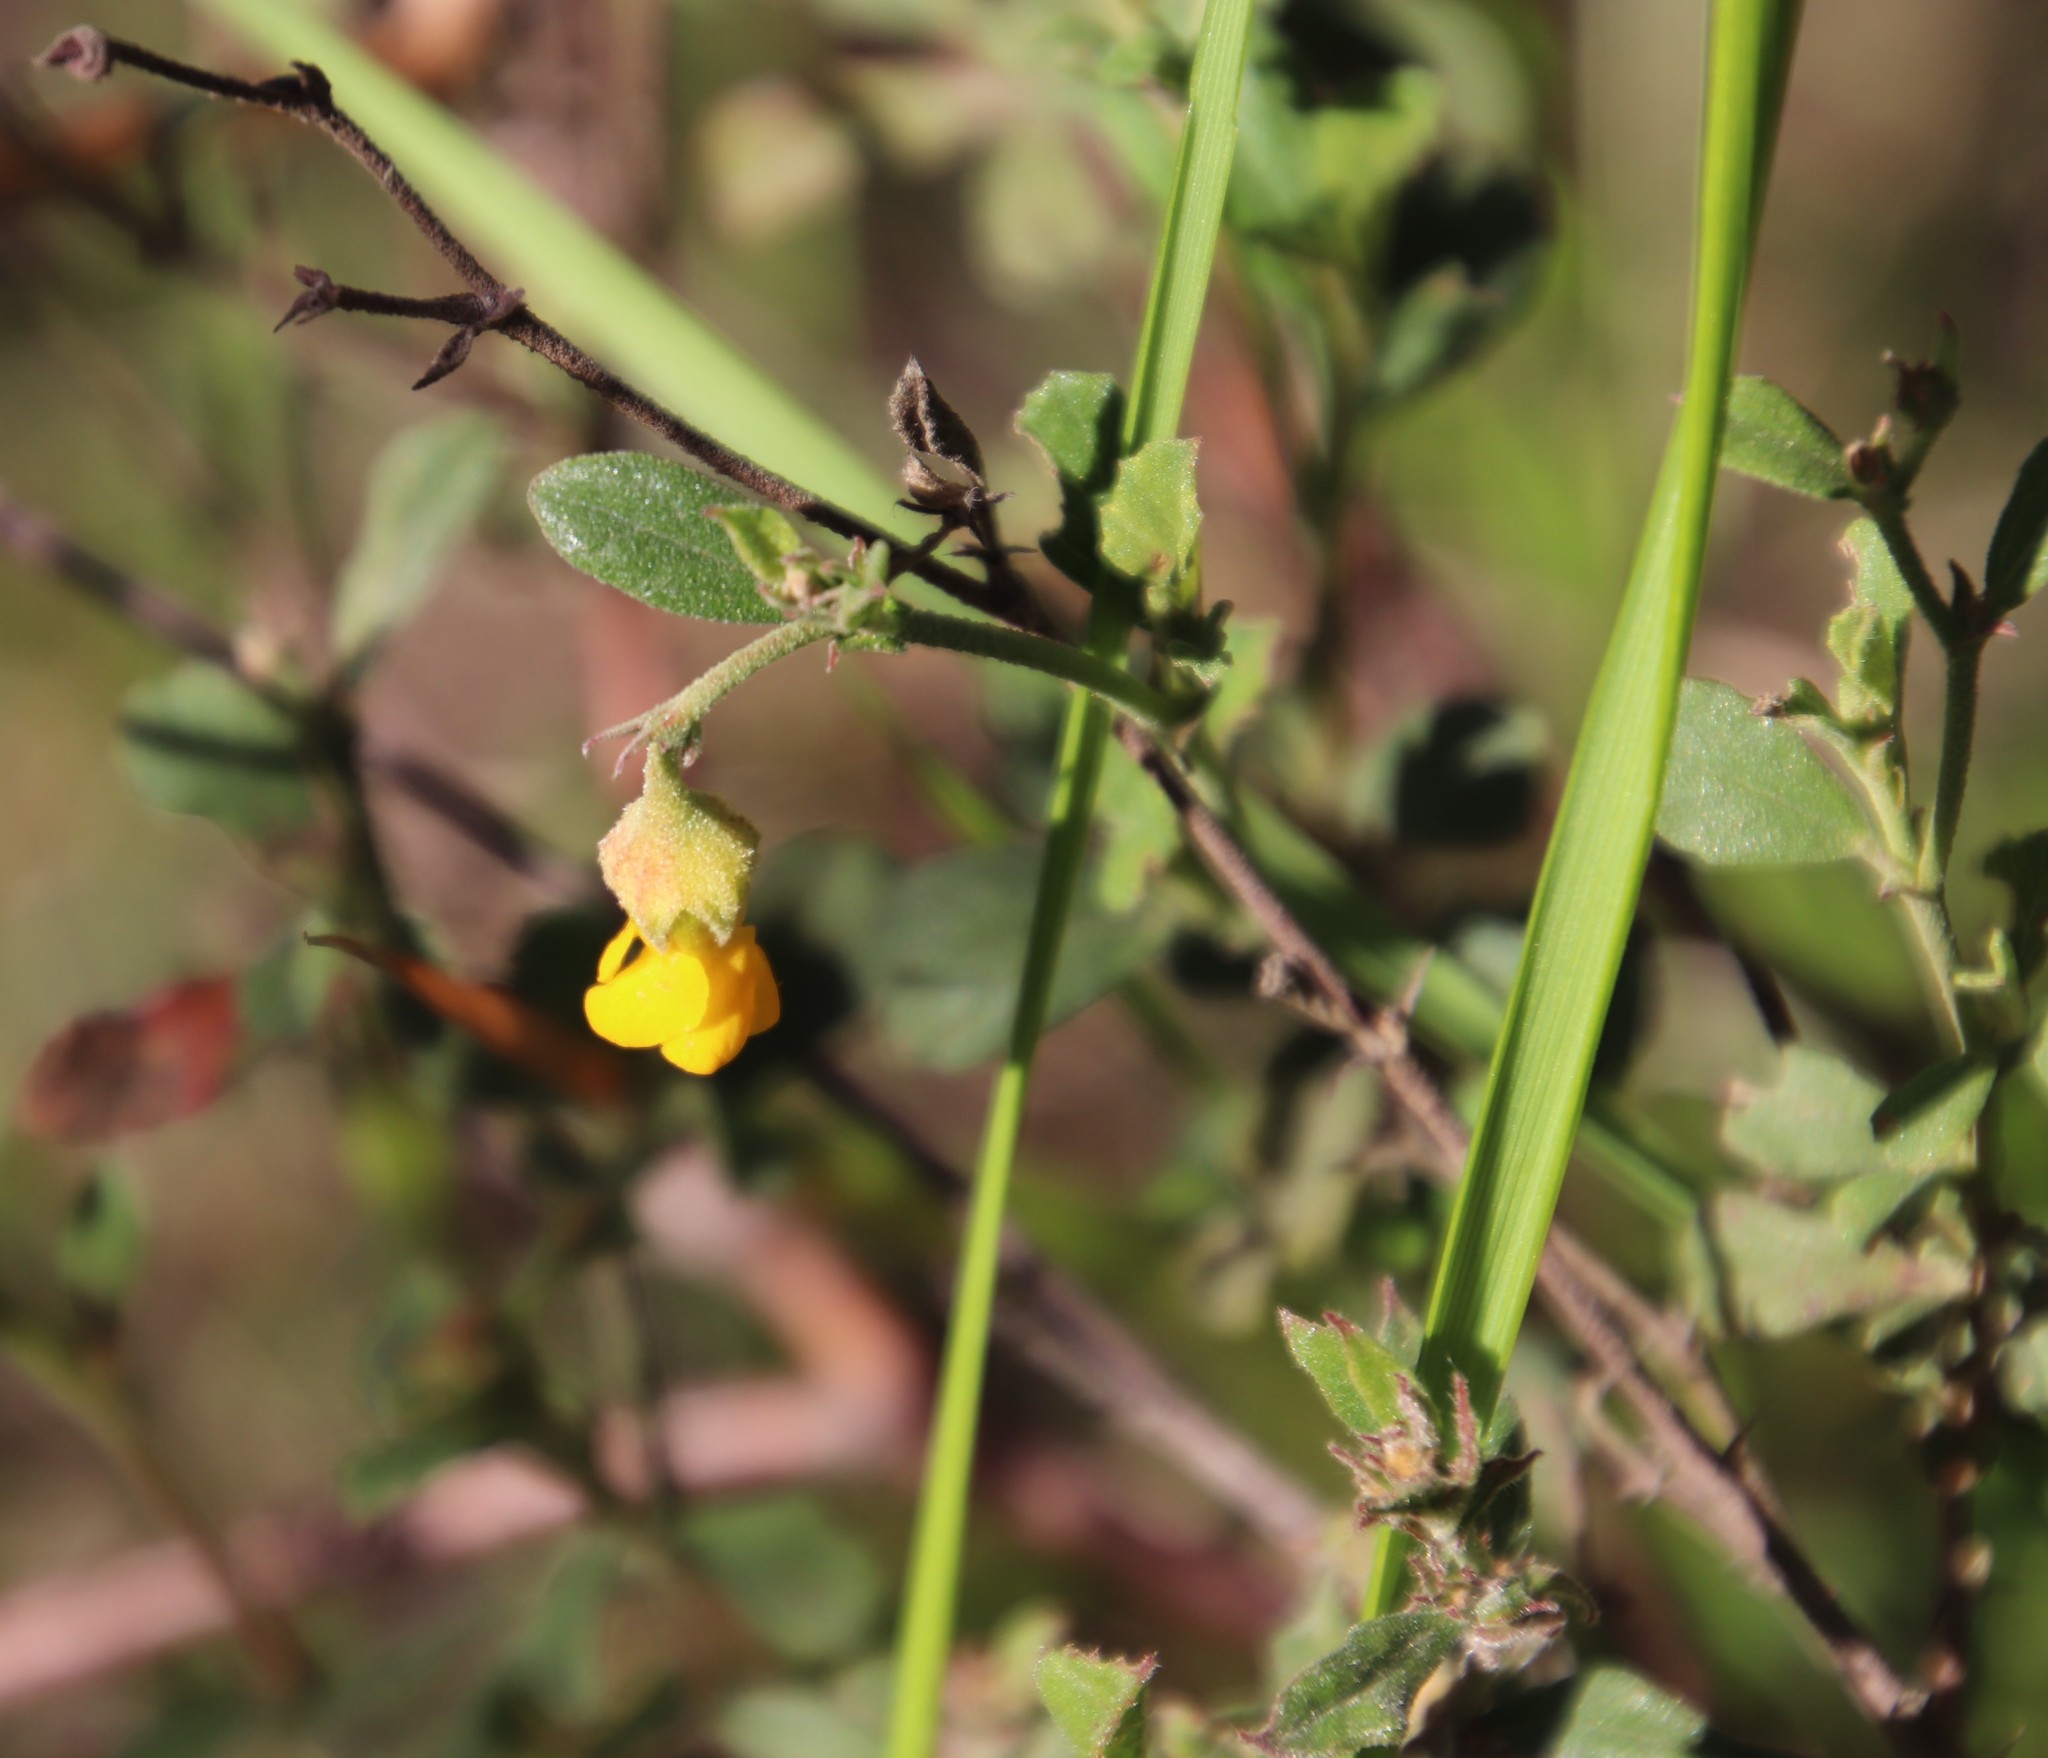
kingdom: Plantae
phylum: Tracheophyta
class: Magnoliopsida
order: Malvales
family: Malvaceae
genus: Hermannia
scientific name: Hermannia multiflora
